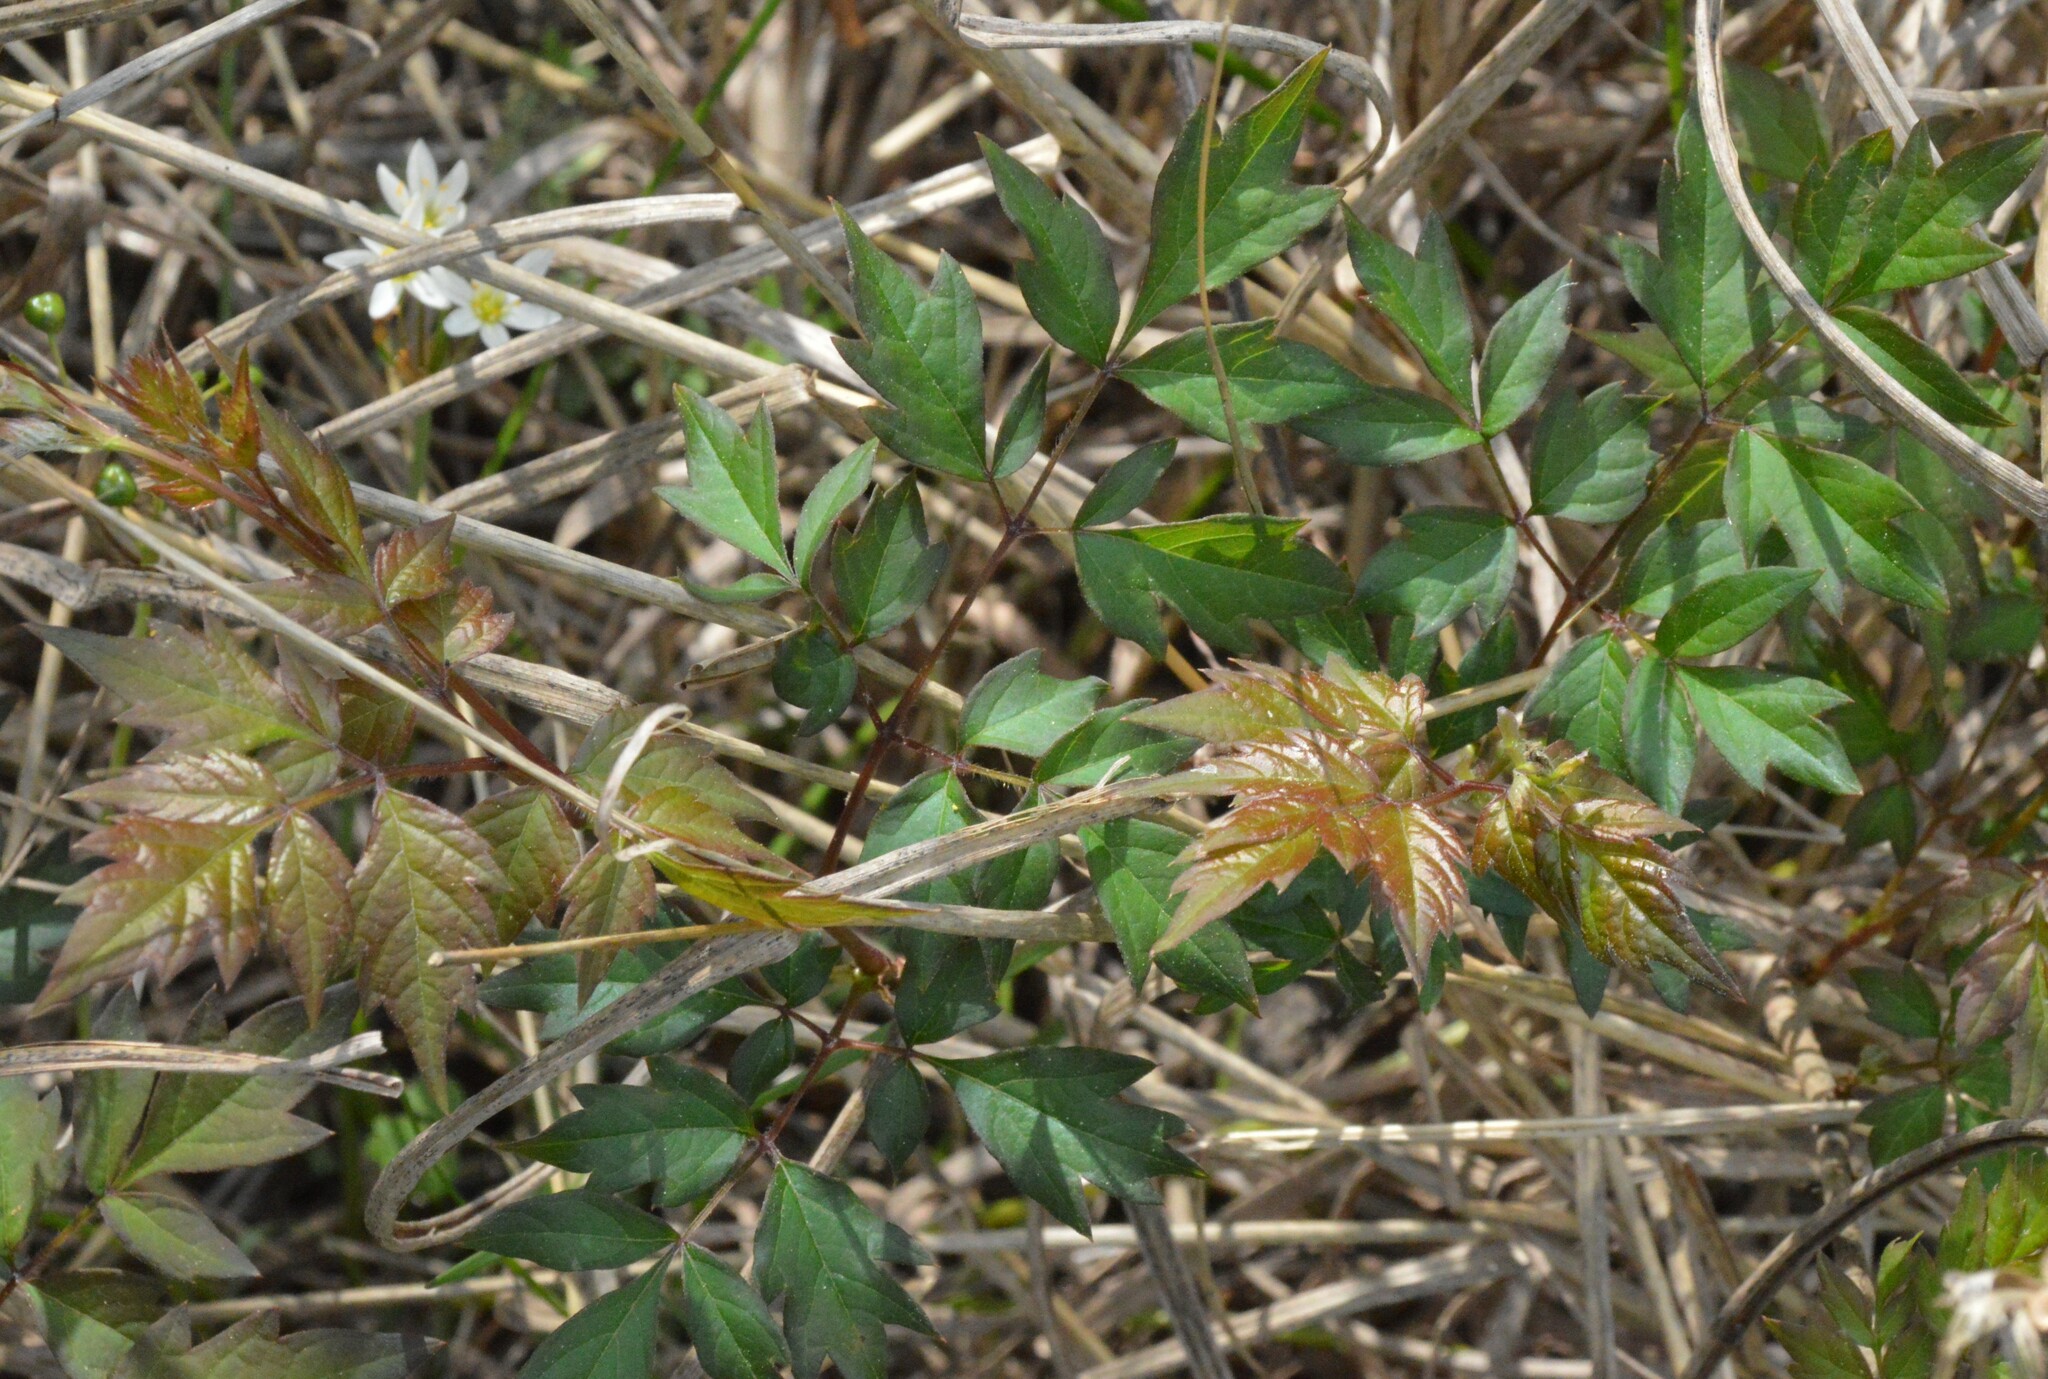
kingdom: Plantae
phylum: Tracheophyta
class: Magnoliopsida
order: Vitales
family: Vitaceae
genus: Nekemias
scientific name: Nekemias arborea
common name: Peppervine
